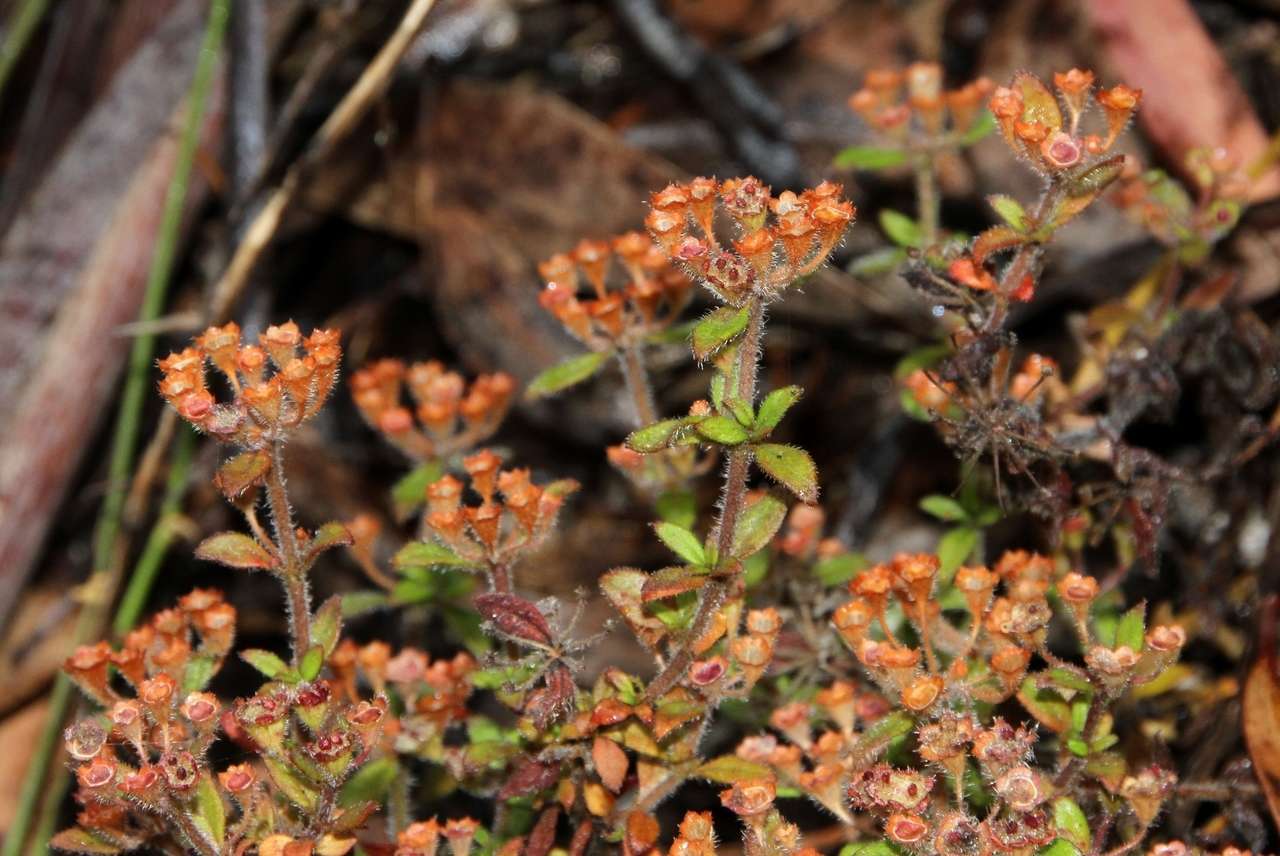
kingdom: Plantae
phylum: Tracheophyta
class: Magnoliopsida
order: Gentianales
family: Rubiaceae
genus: Pomax
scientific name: Pomax umbellata
